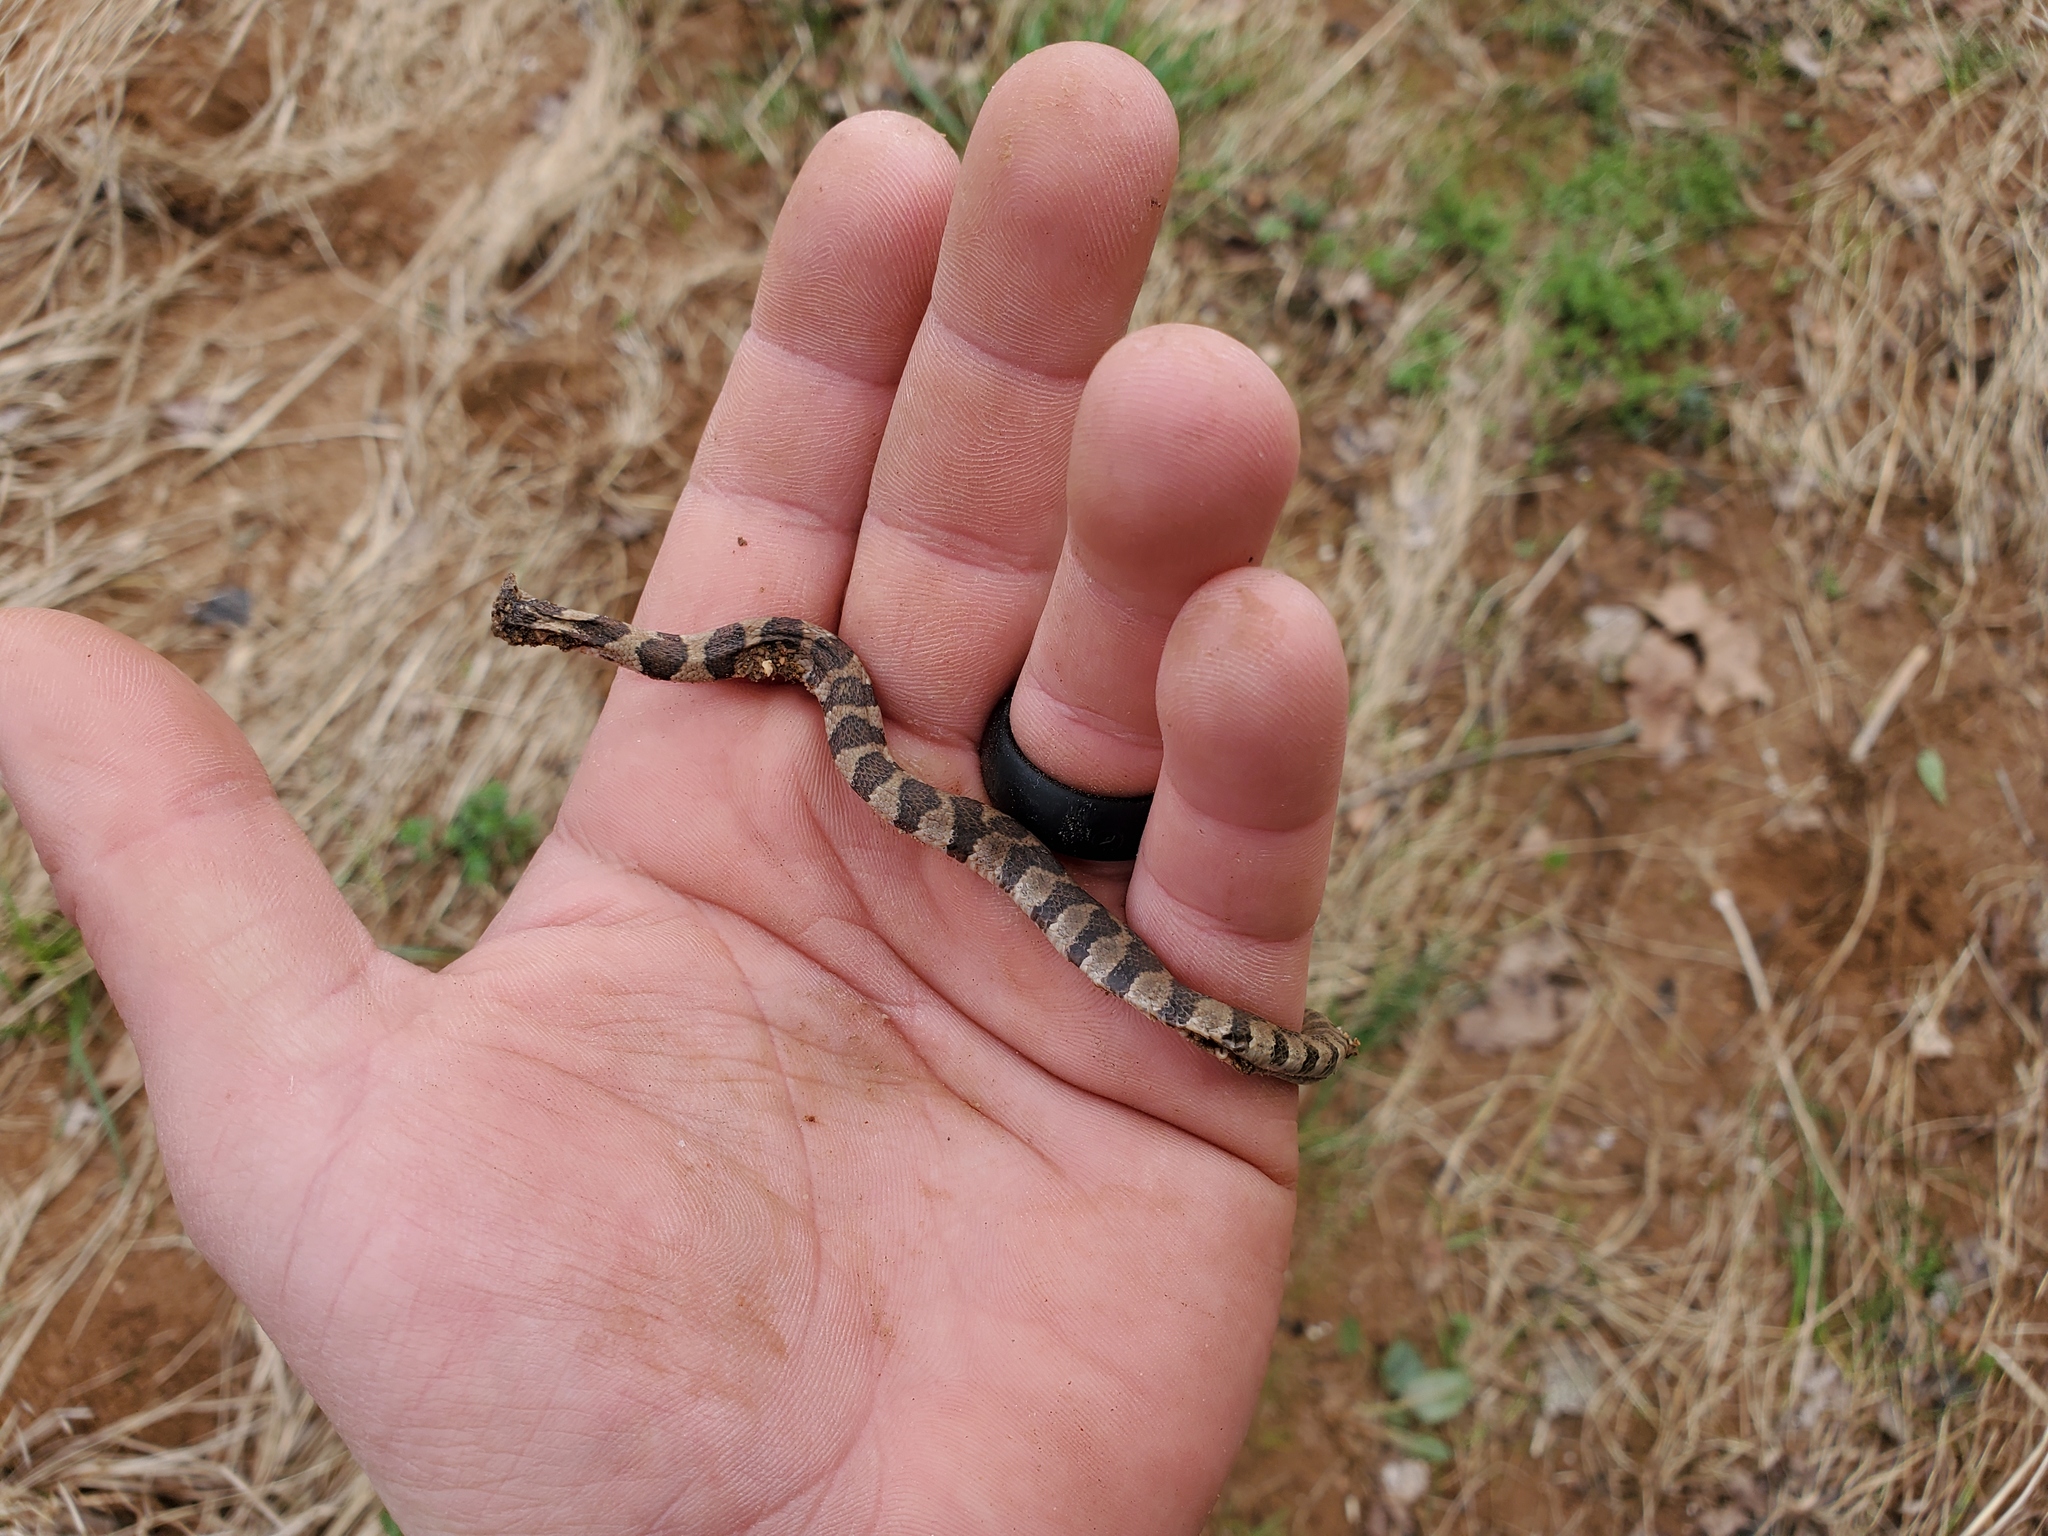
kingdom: Animalia
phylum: Chordata
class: Squamata
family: Colubridae
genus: Nerodia
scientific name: Nerodia sipedon
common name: Northern water snake
